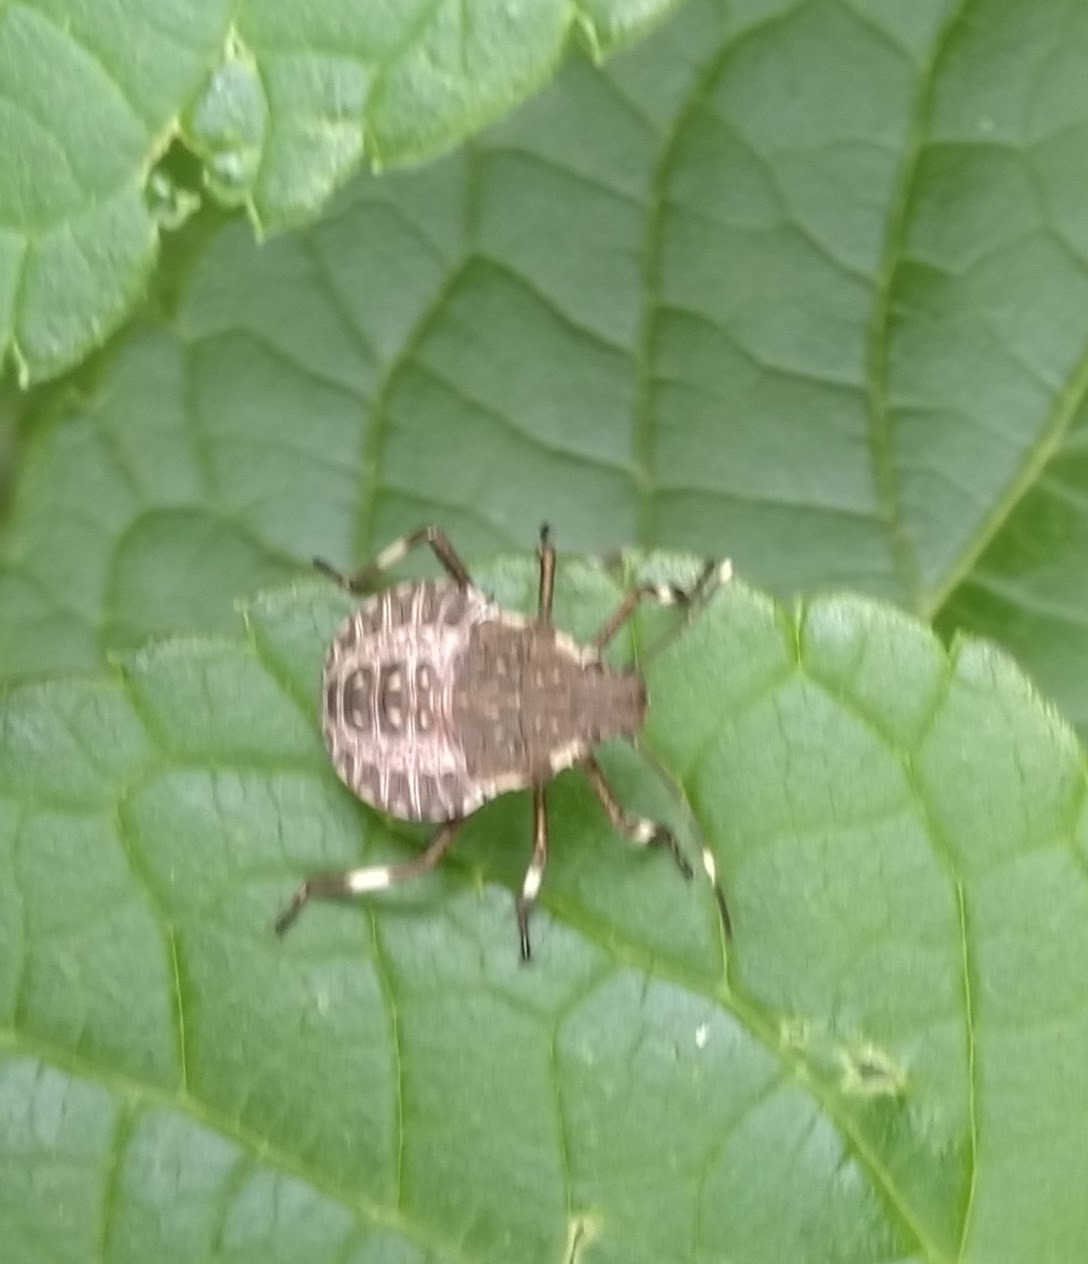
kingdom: Animalia
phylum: Arthropoda
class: Insecta
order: Hemiptera
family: Pentatomidae
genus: Halyomorpha
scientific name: Halyomorpha halys
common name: Brown marmorated stink bug
